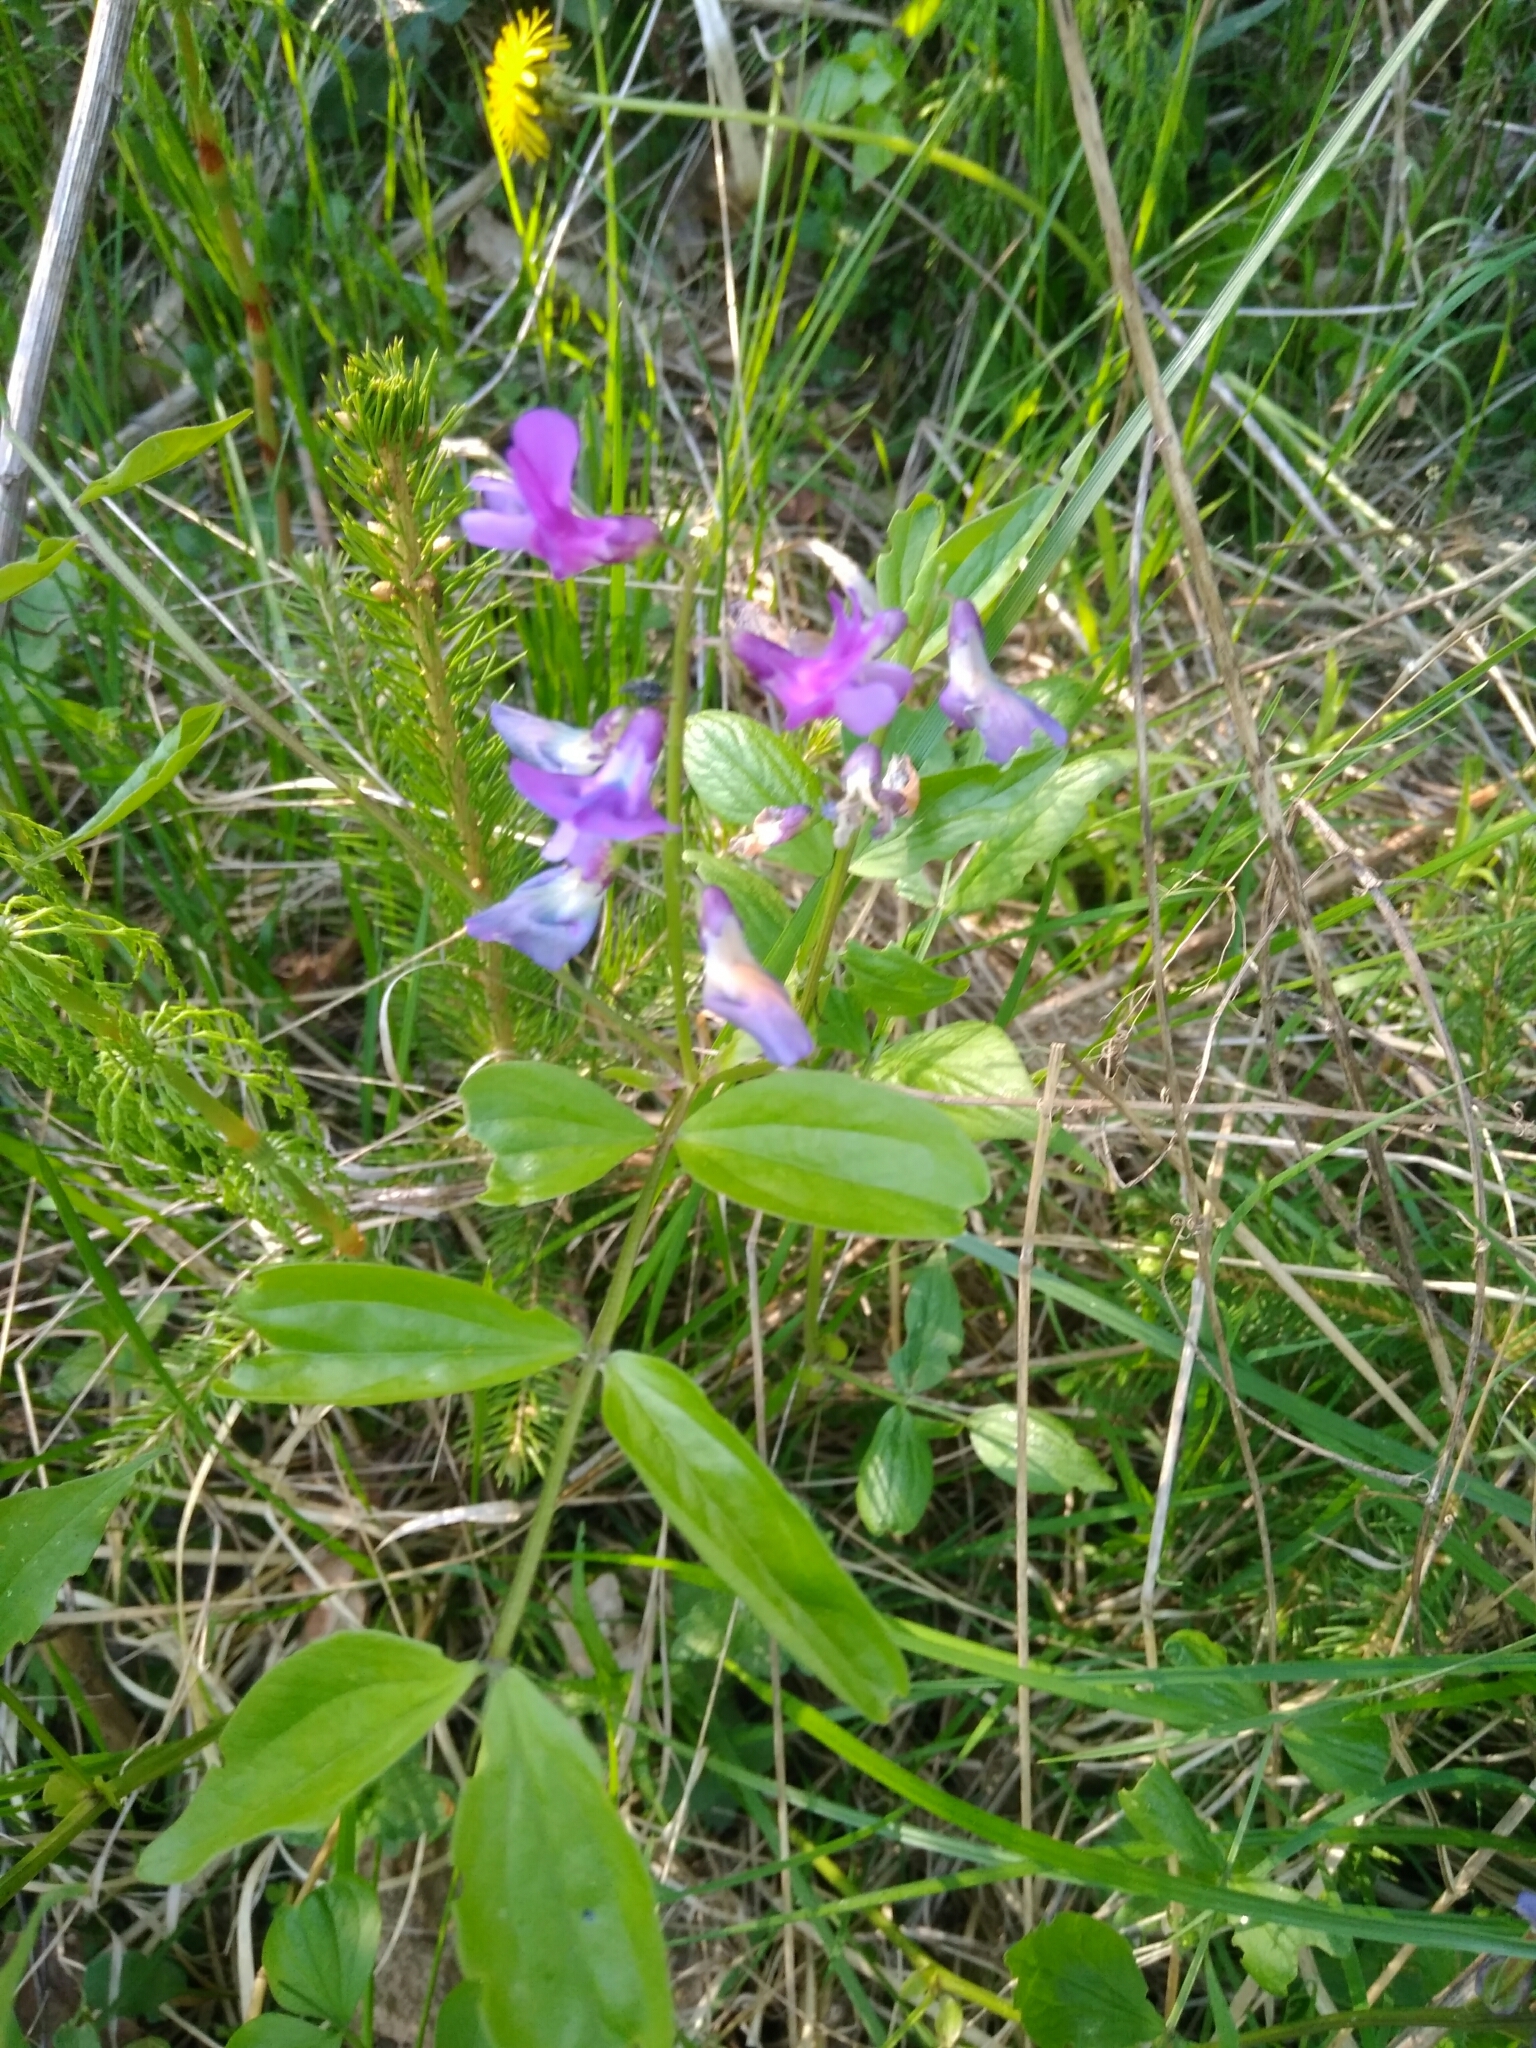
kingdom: Plantae
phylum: Tracheophyta
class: Magnoliopsida
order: Fabales
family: Fabaceae
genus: Lathyrus
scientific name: Lathyrus vernus
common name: Spring pea
